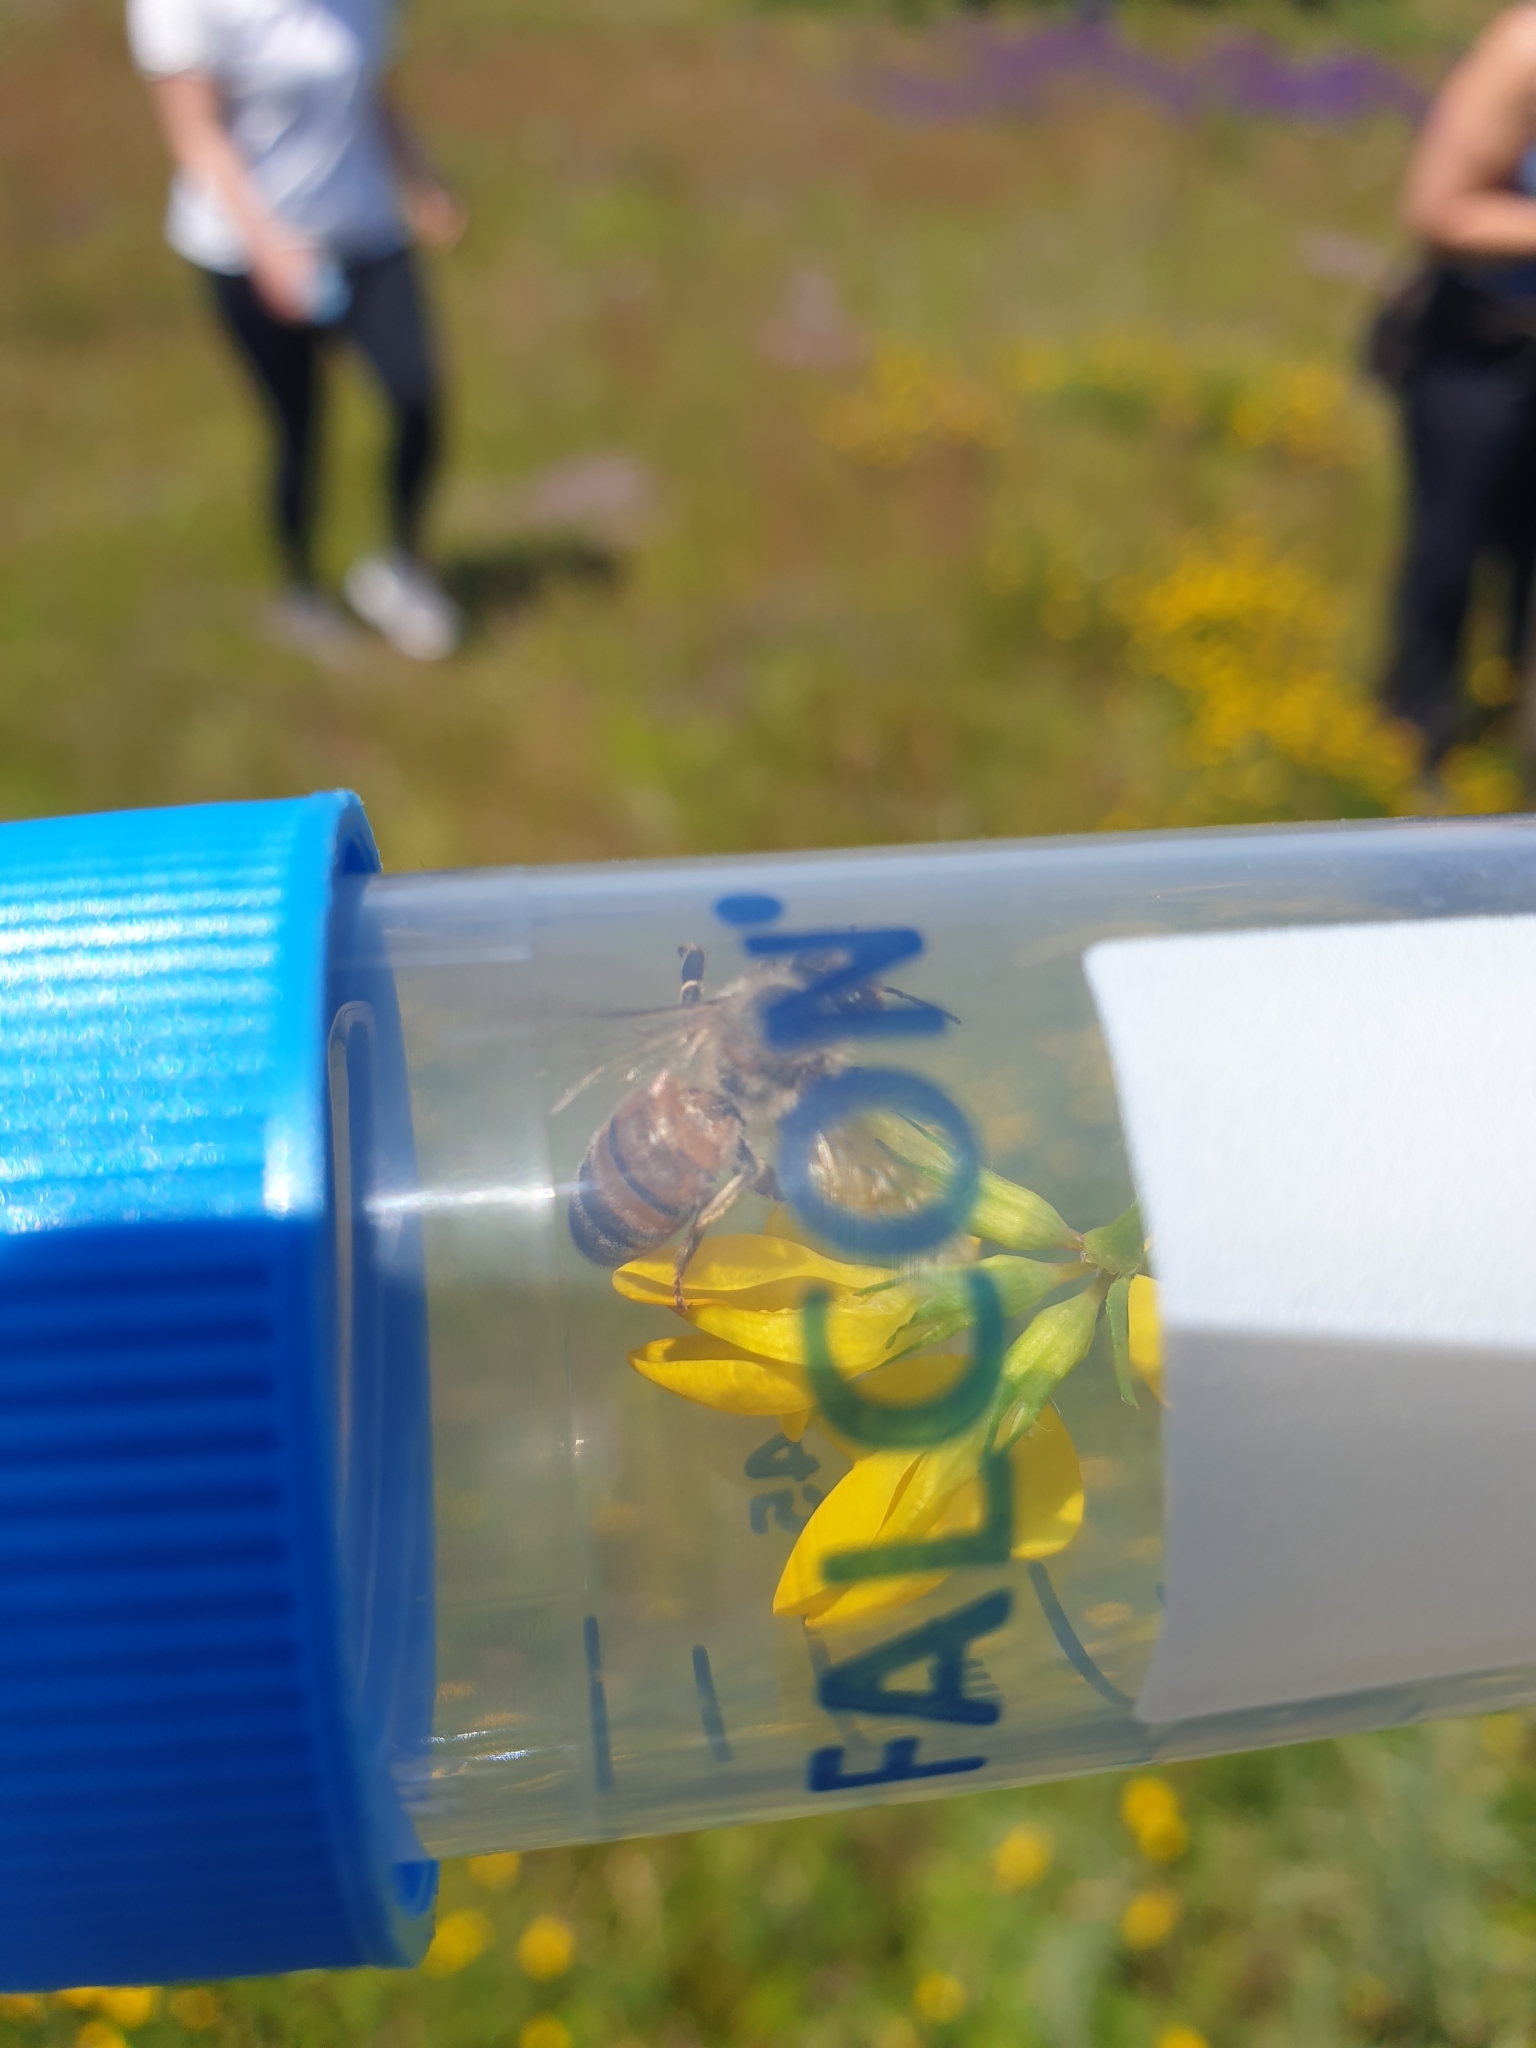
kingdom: Animalia
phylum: Arthropoda
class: Insecta
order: Hymenoptera
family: Apidae
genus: Apis
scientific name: Apis mellifera
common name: Honey bee
